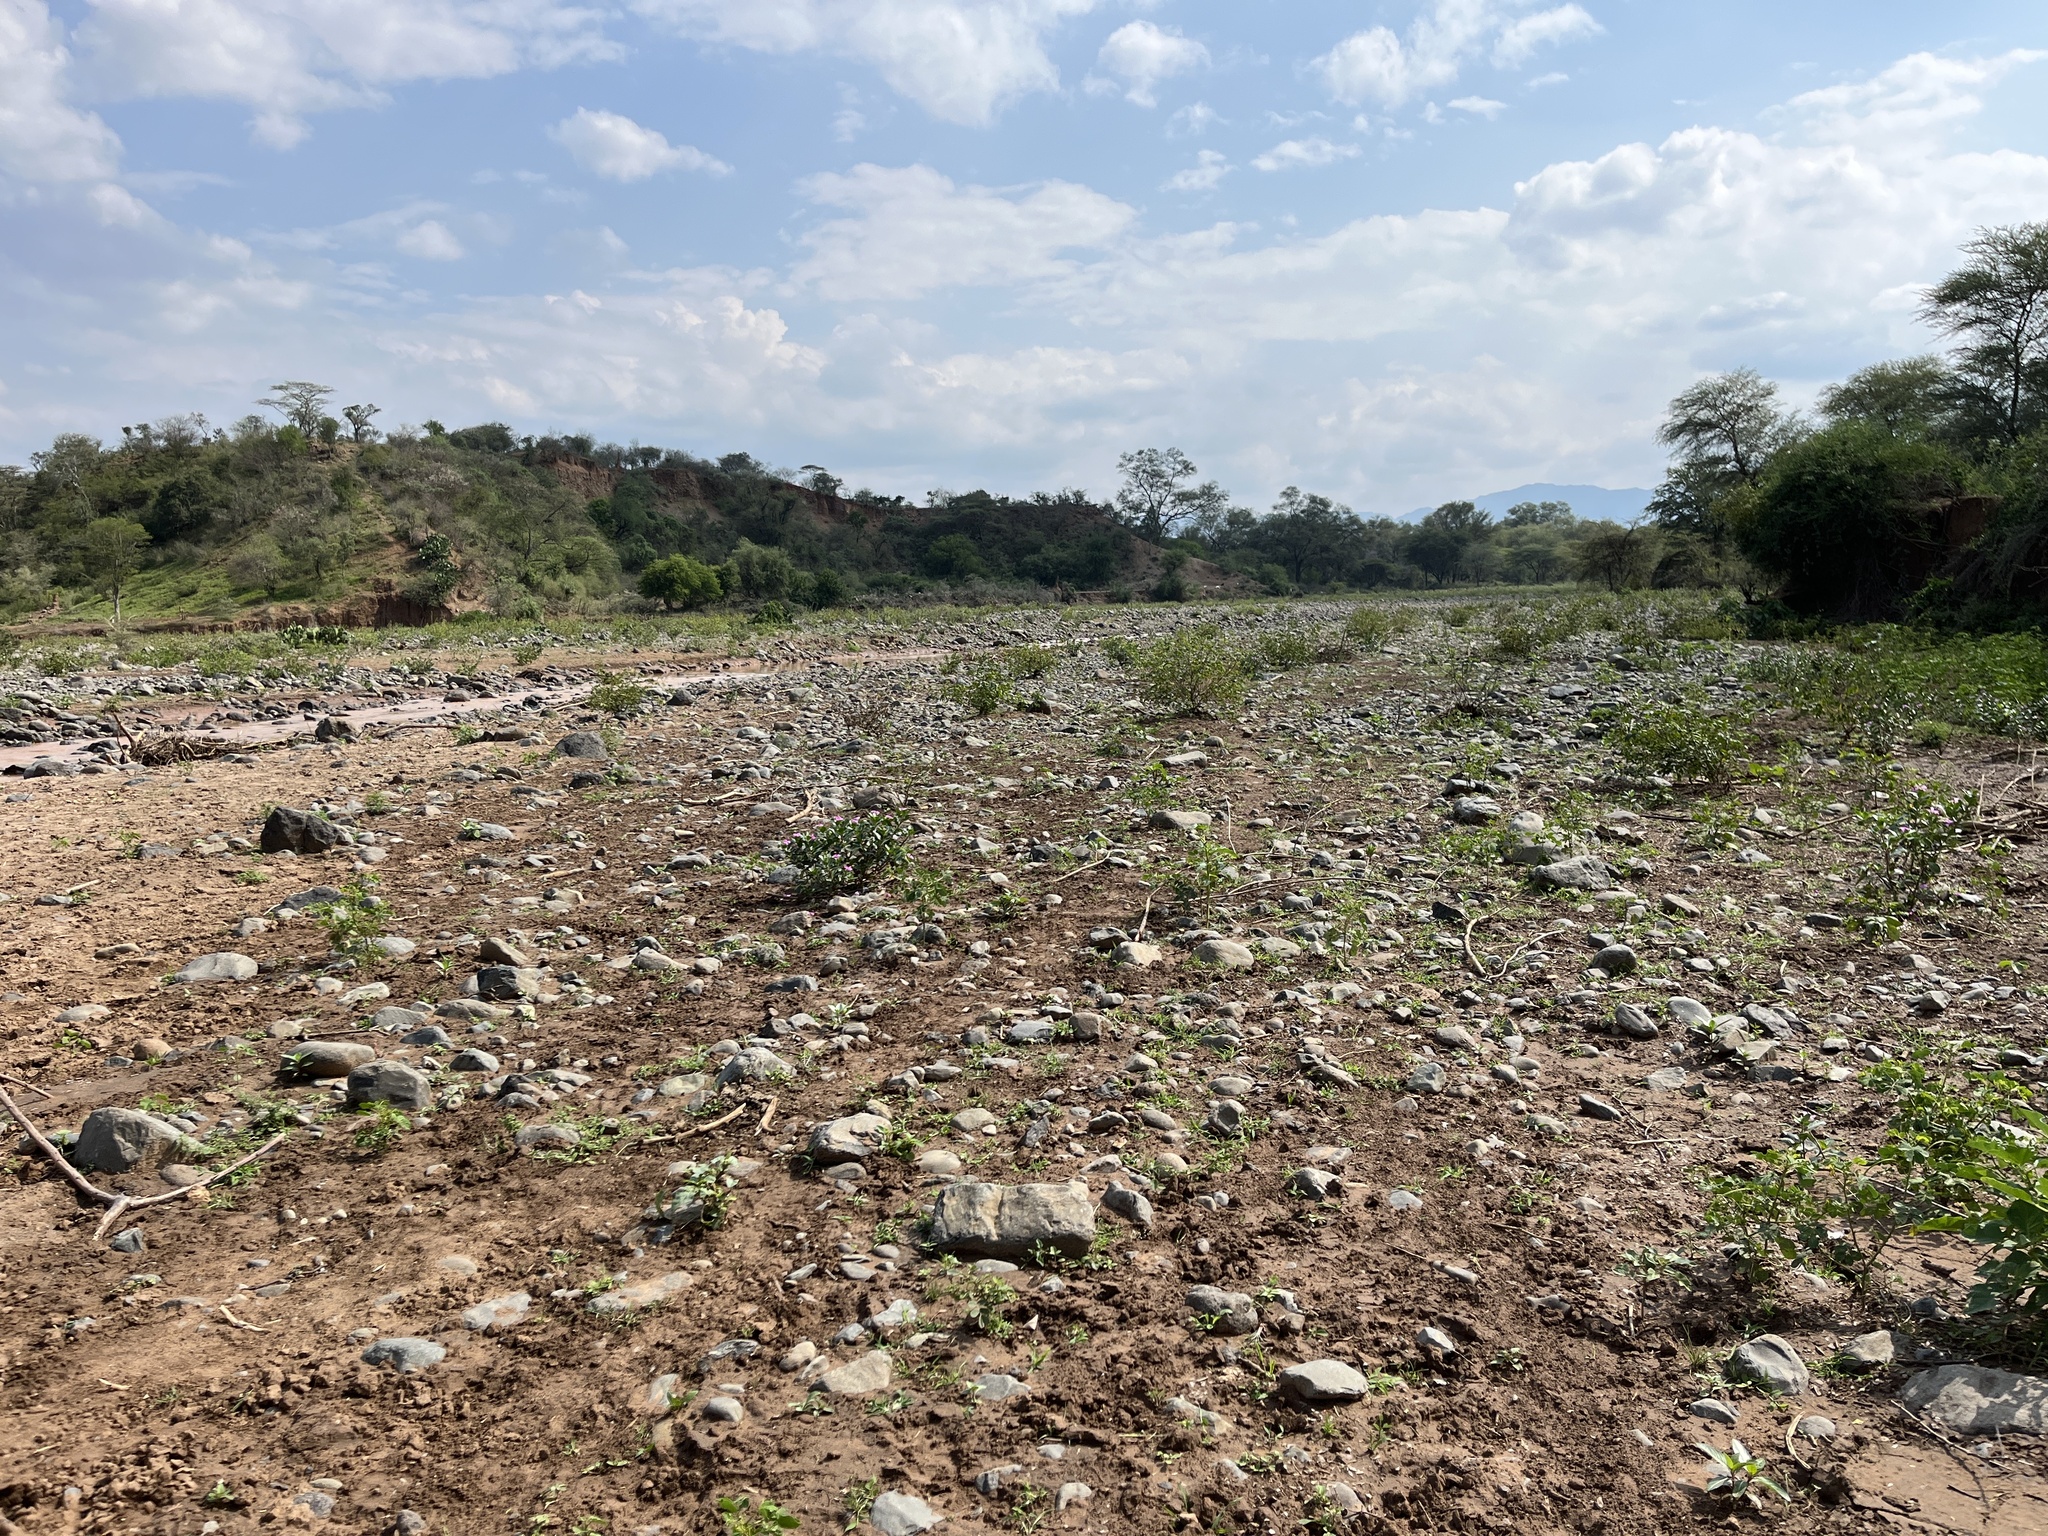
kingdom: Plantae
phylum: Tracheophyta
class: Magnoliopsida
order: Gentianales
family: Apocynaceae
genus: Catharanthus
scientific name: Catharanthus roseus
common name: Madagascar periwinkle
